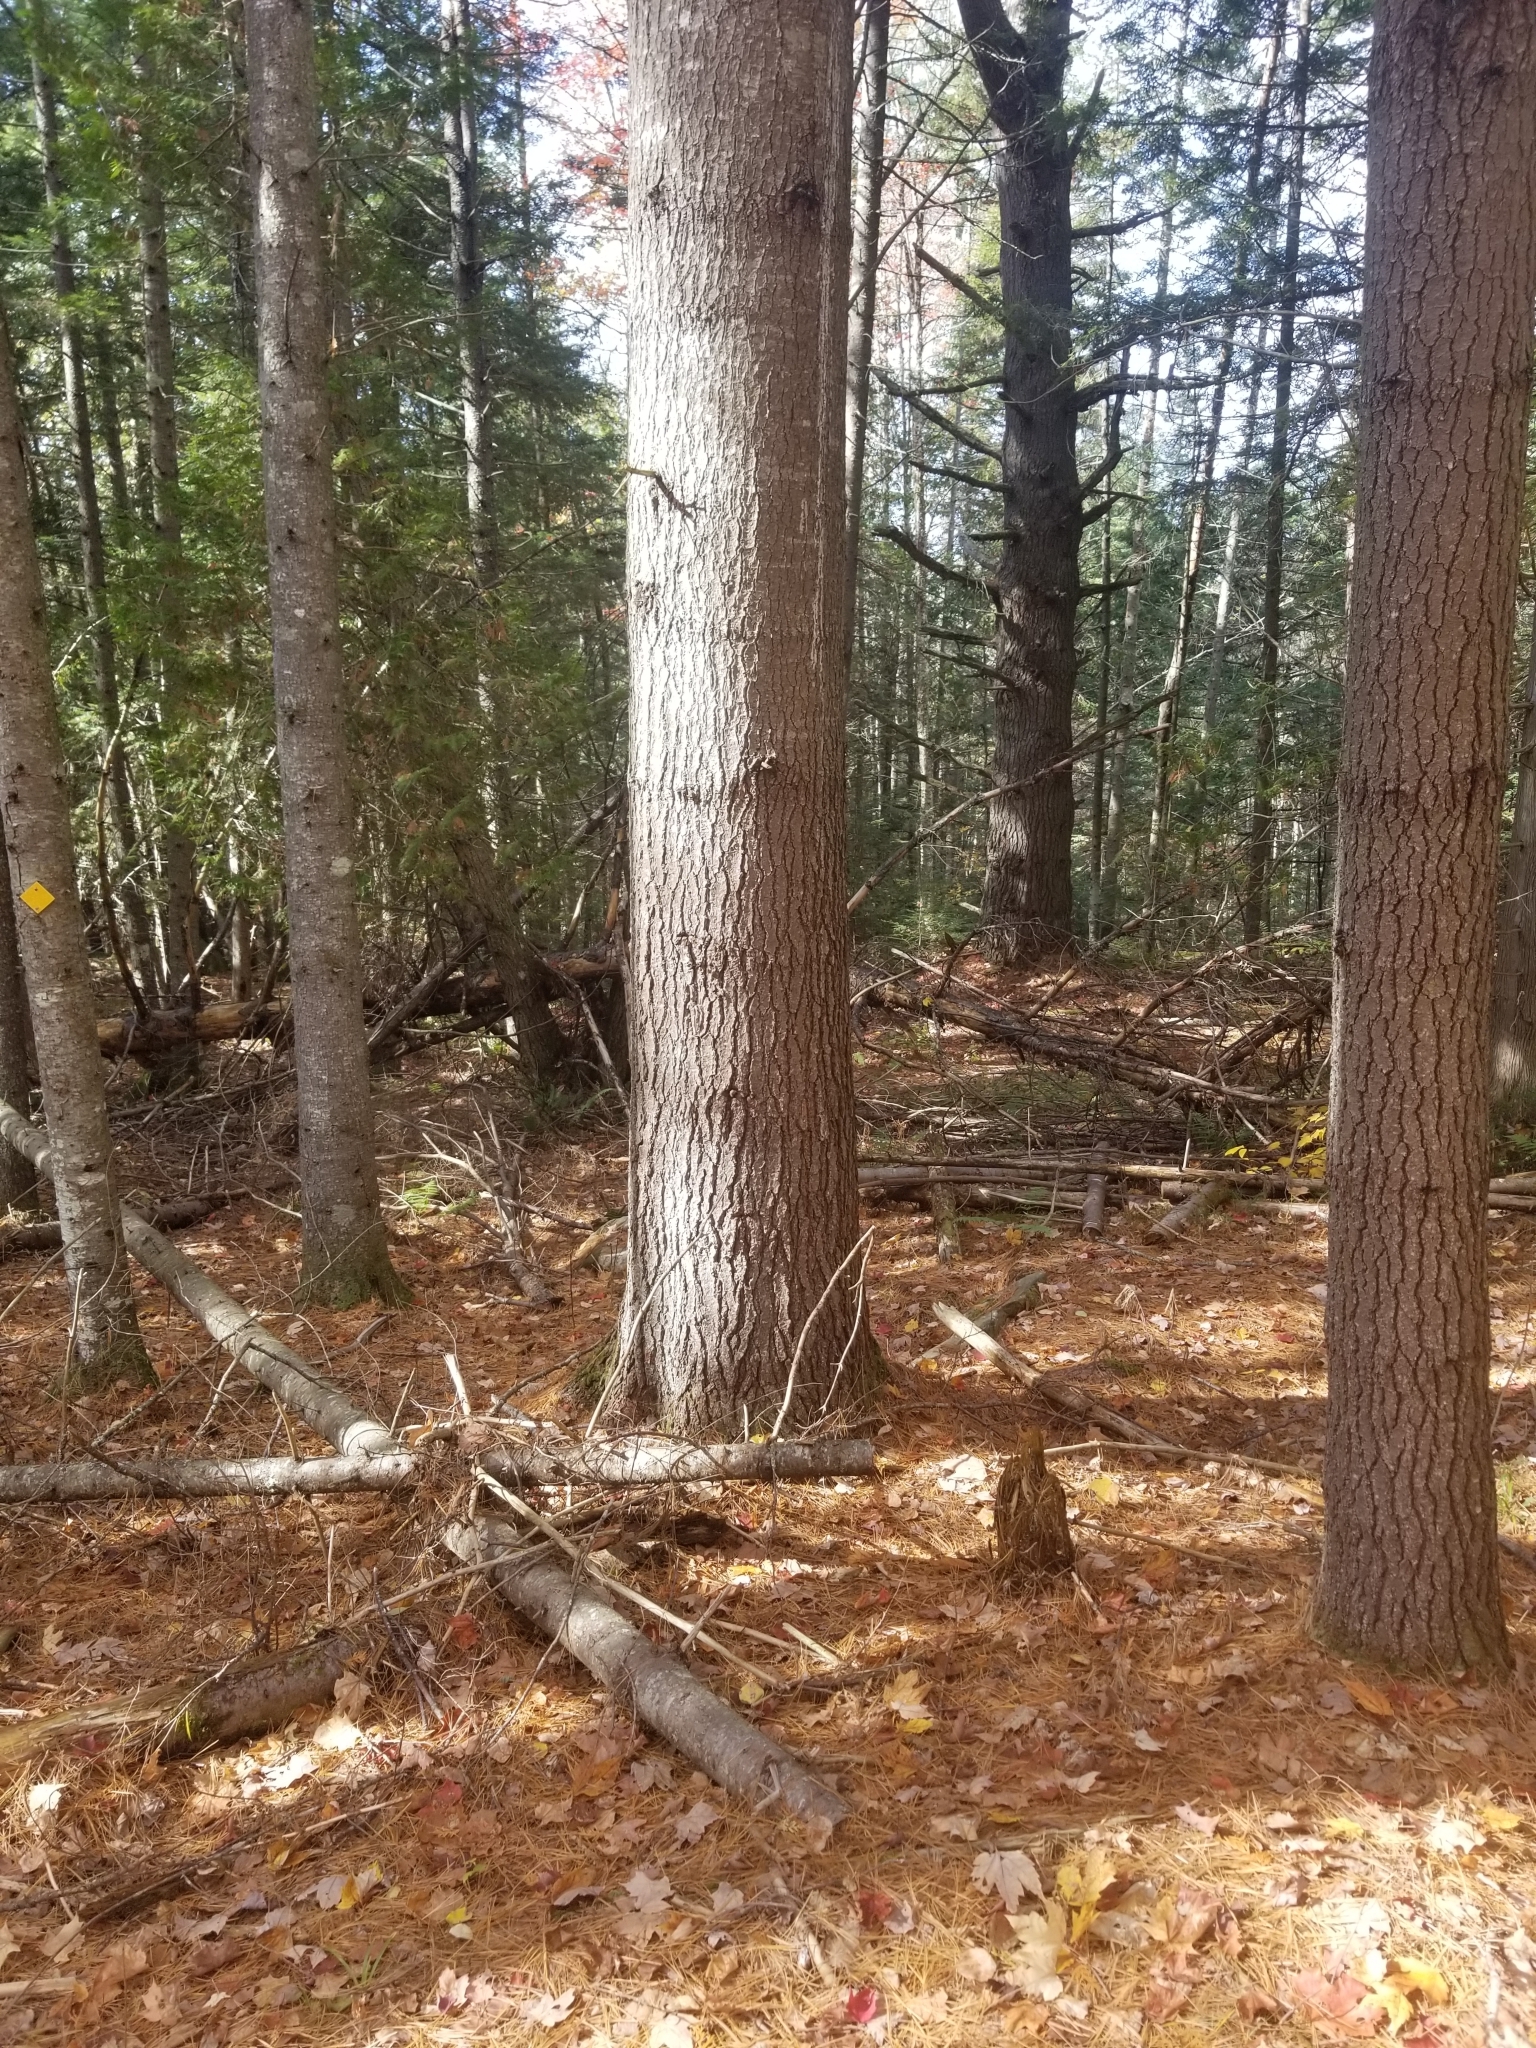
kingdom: Plantae
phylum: Tracheophyta
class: Pinopsida
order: Pinales
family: Pinaceae
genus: Pinus
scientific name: Pinus strobus
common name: Weymouth pine
